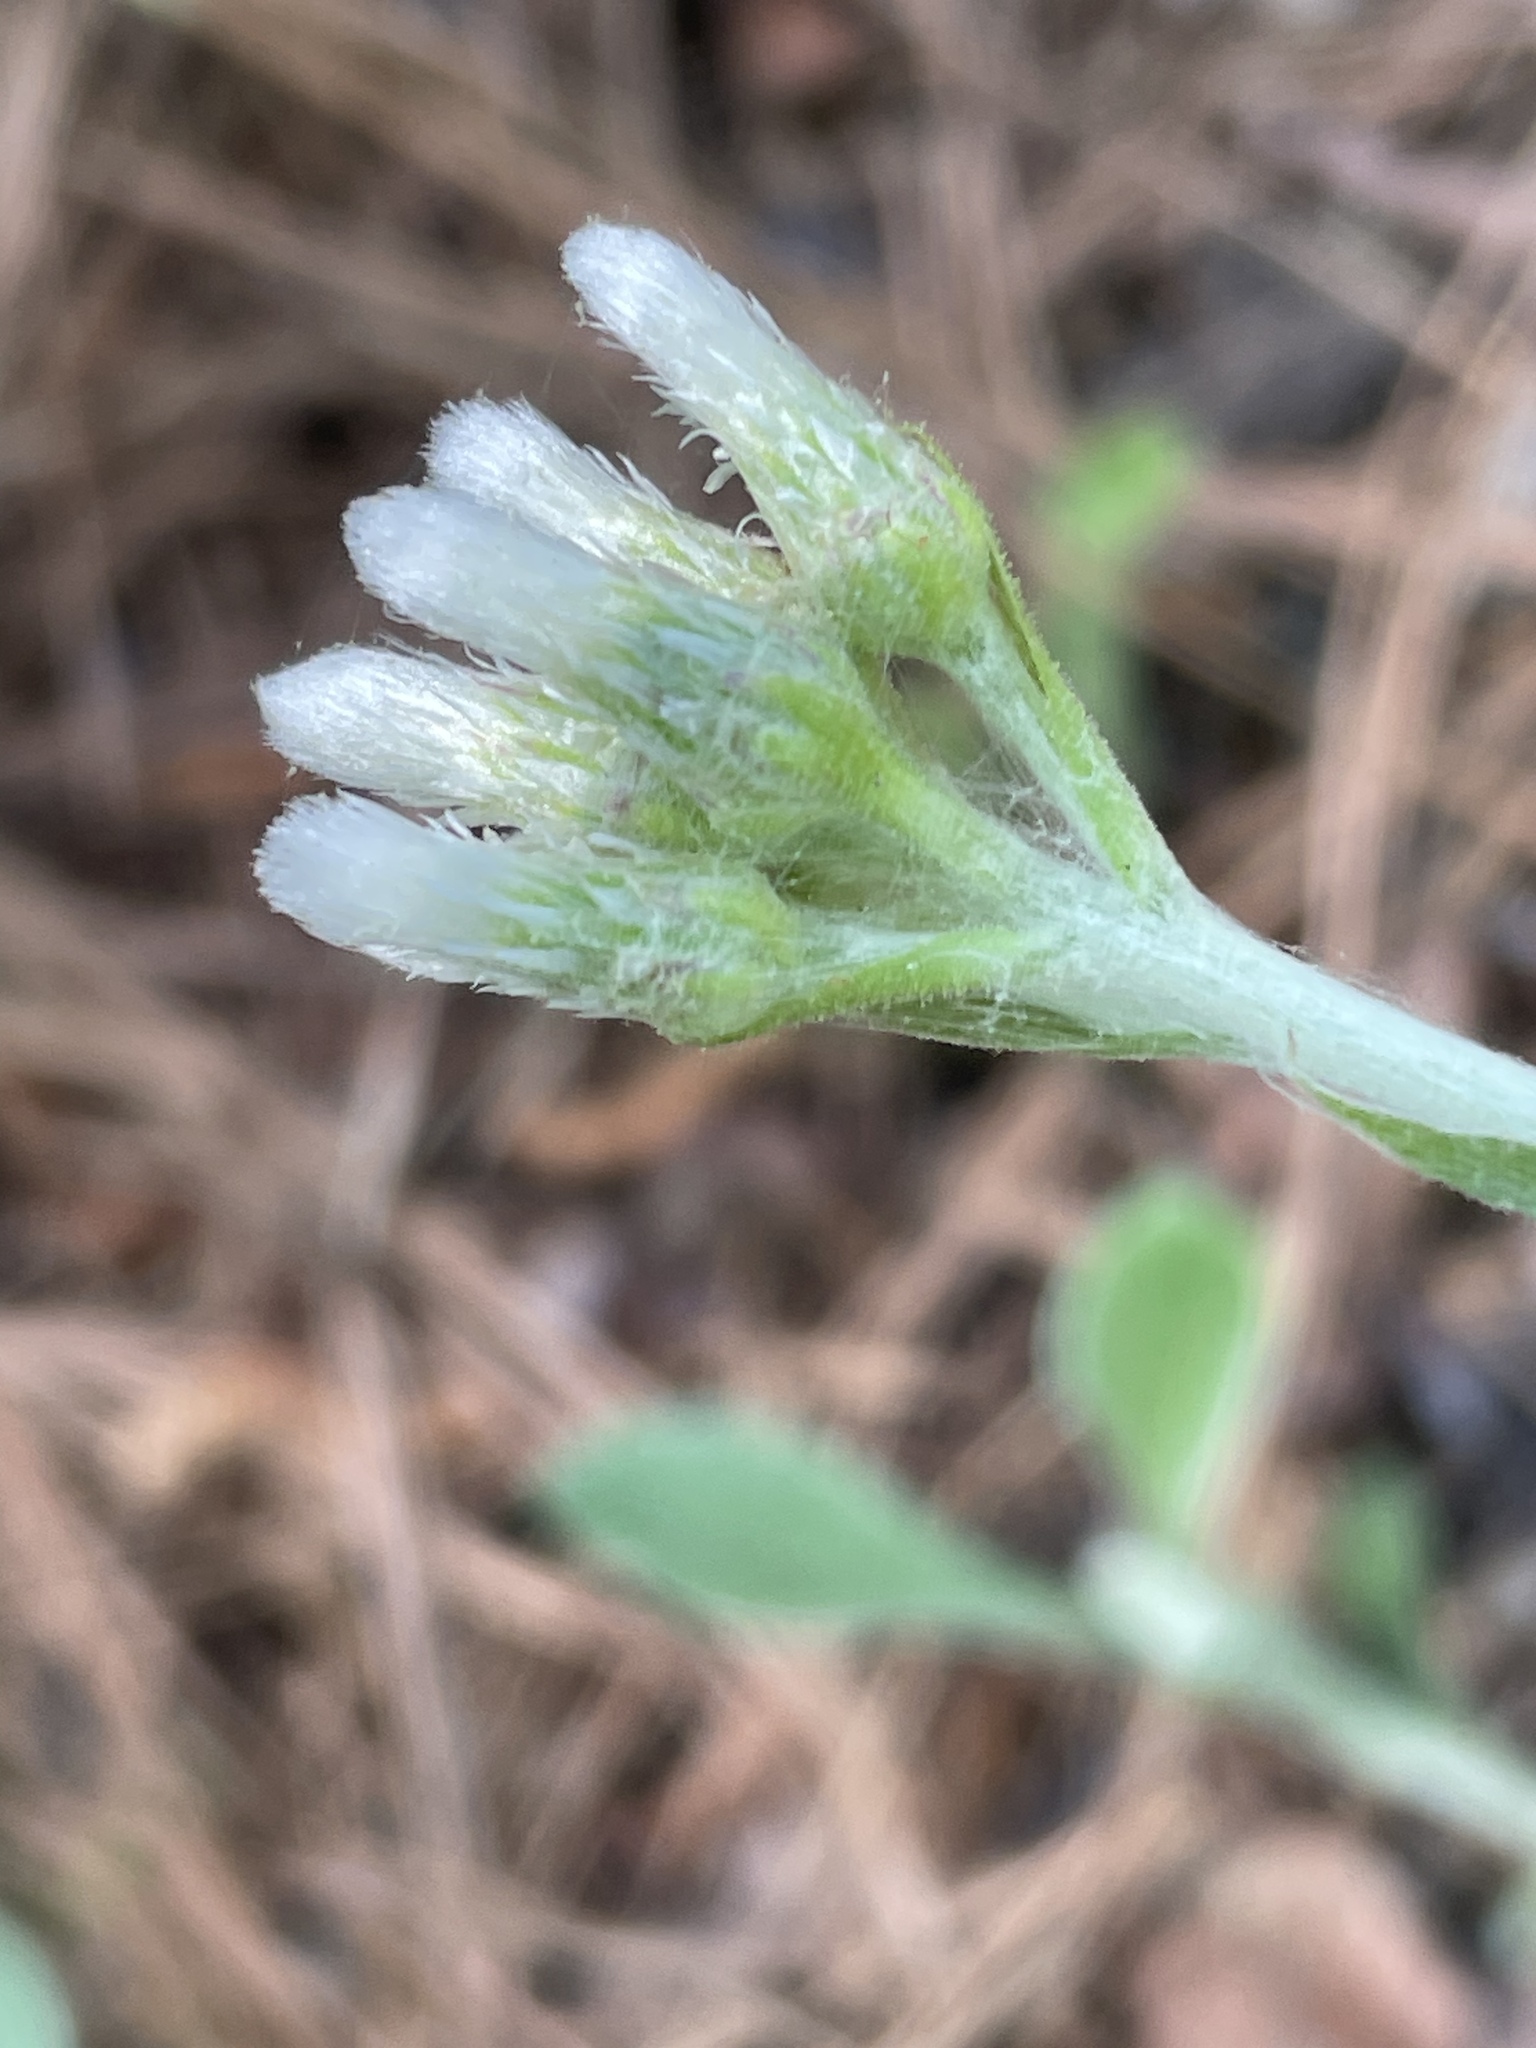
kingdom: Plantae
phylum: Tracheophyta
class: Magnoliopsida
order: Asterales
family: Asteraceae
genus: Antennaria
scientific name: Antennaria parlinii
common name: Parlin's pussytoes
